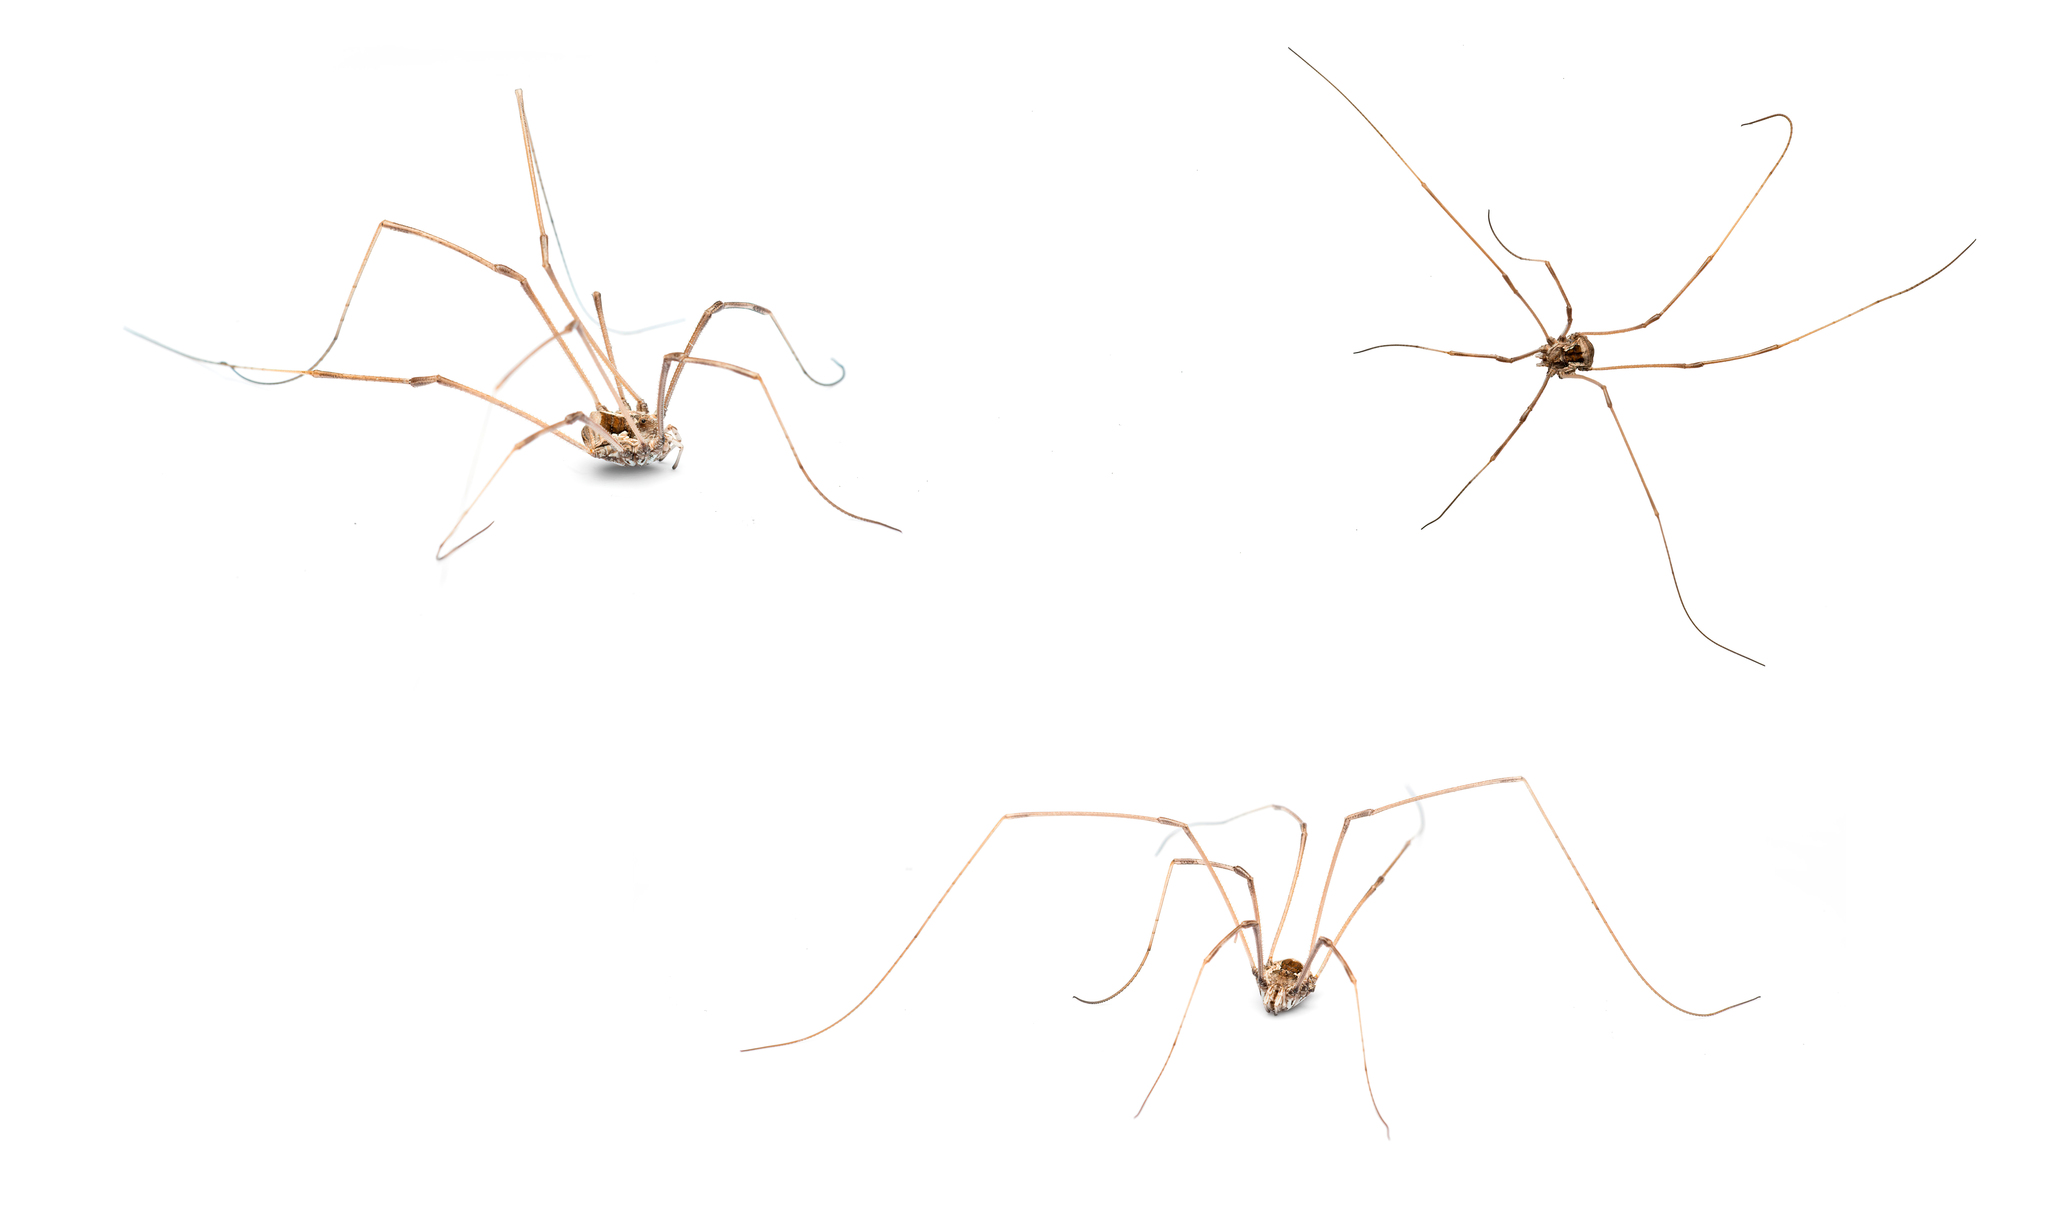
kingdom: Animalia
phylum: Arthropoda
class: Arachnida
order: Opiliones
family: Phalangiidae
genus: Metaphalangium
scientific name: Metaphalangium cirtanum
